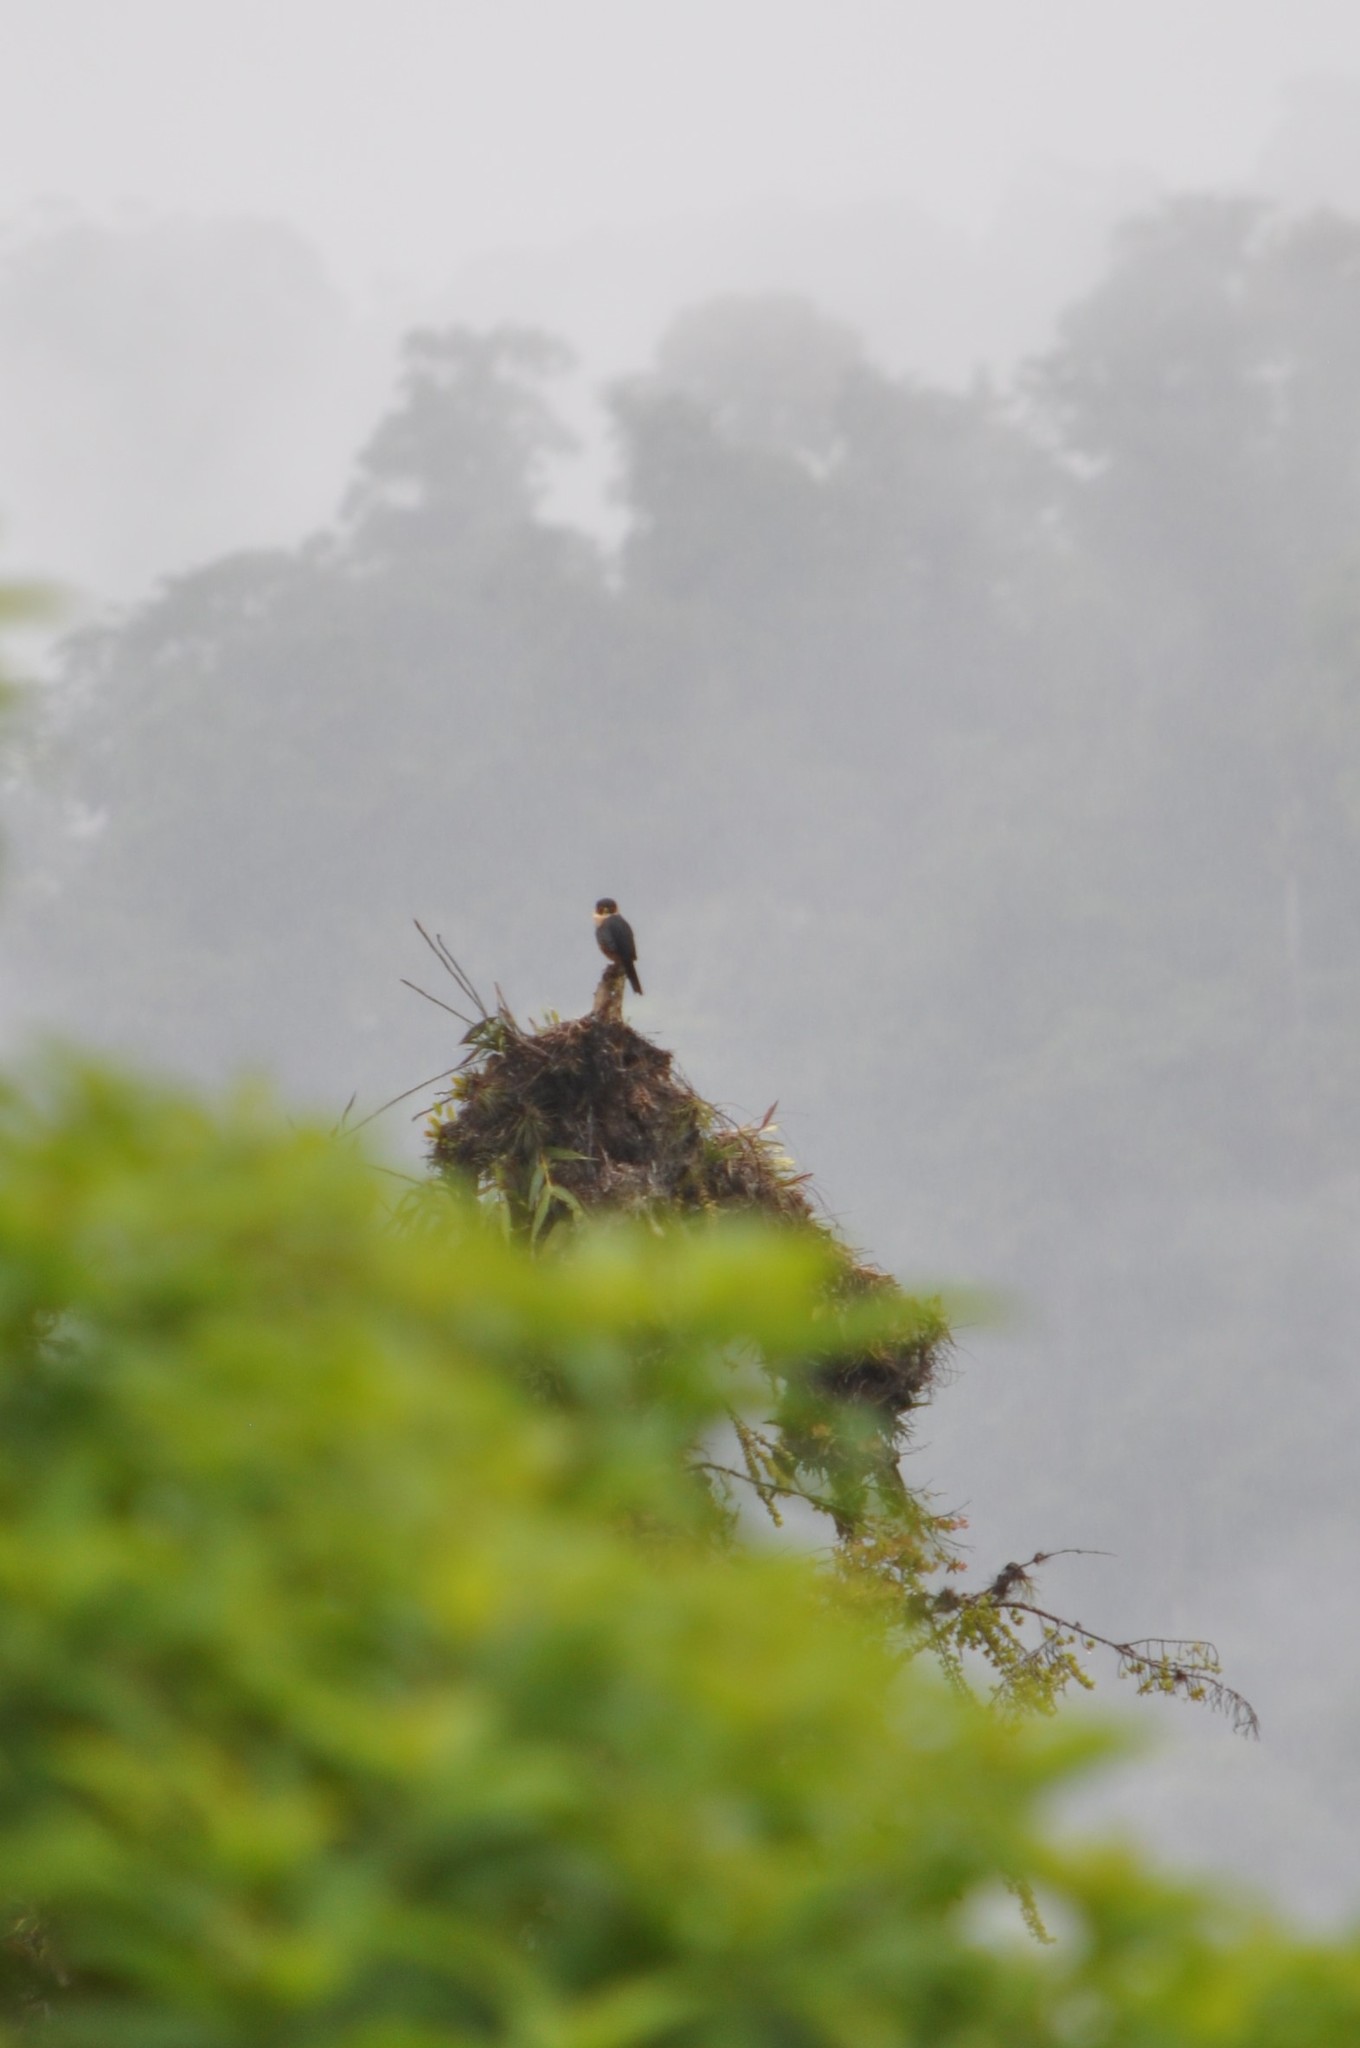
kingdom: Animalia
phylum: Chordata
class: Aves
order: Falconiformes
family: Falconidae
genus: Falco
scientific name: Falco rufigularis
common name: Bat falcon
